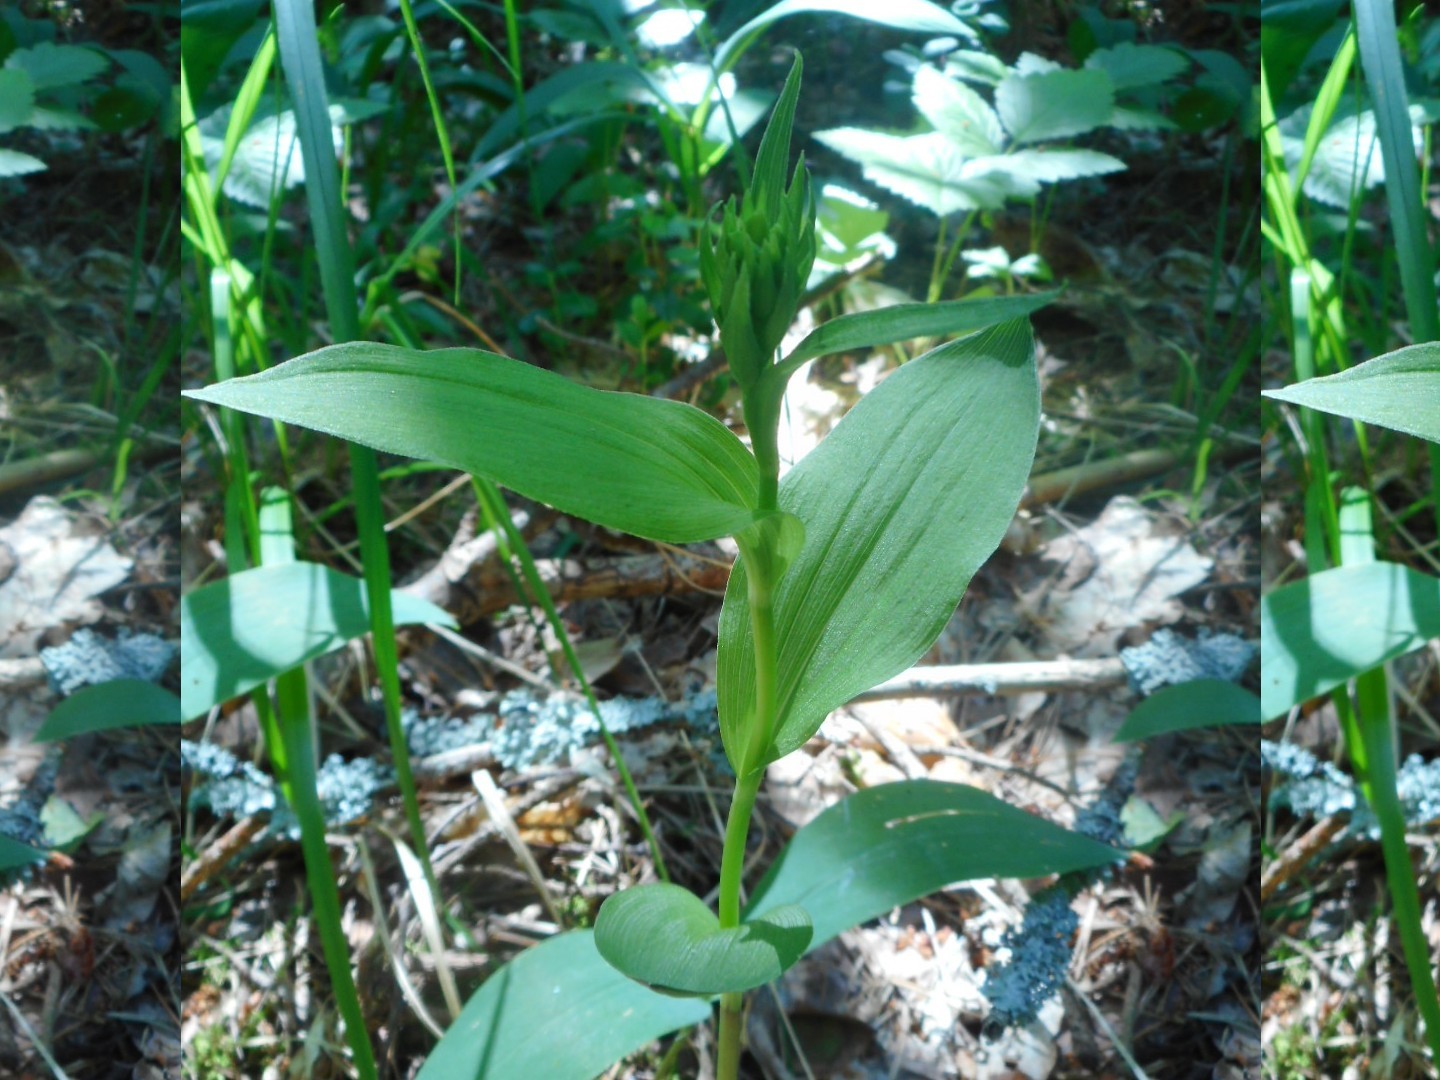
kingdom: Plantae
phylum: Tracheophyta
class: Liliopsida
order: Asparagales
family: Orchidaceae
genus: Epipactis
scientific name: Epipactis helleborine
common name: Broad-leaved helleborine
